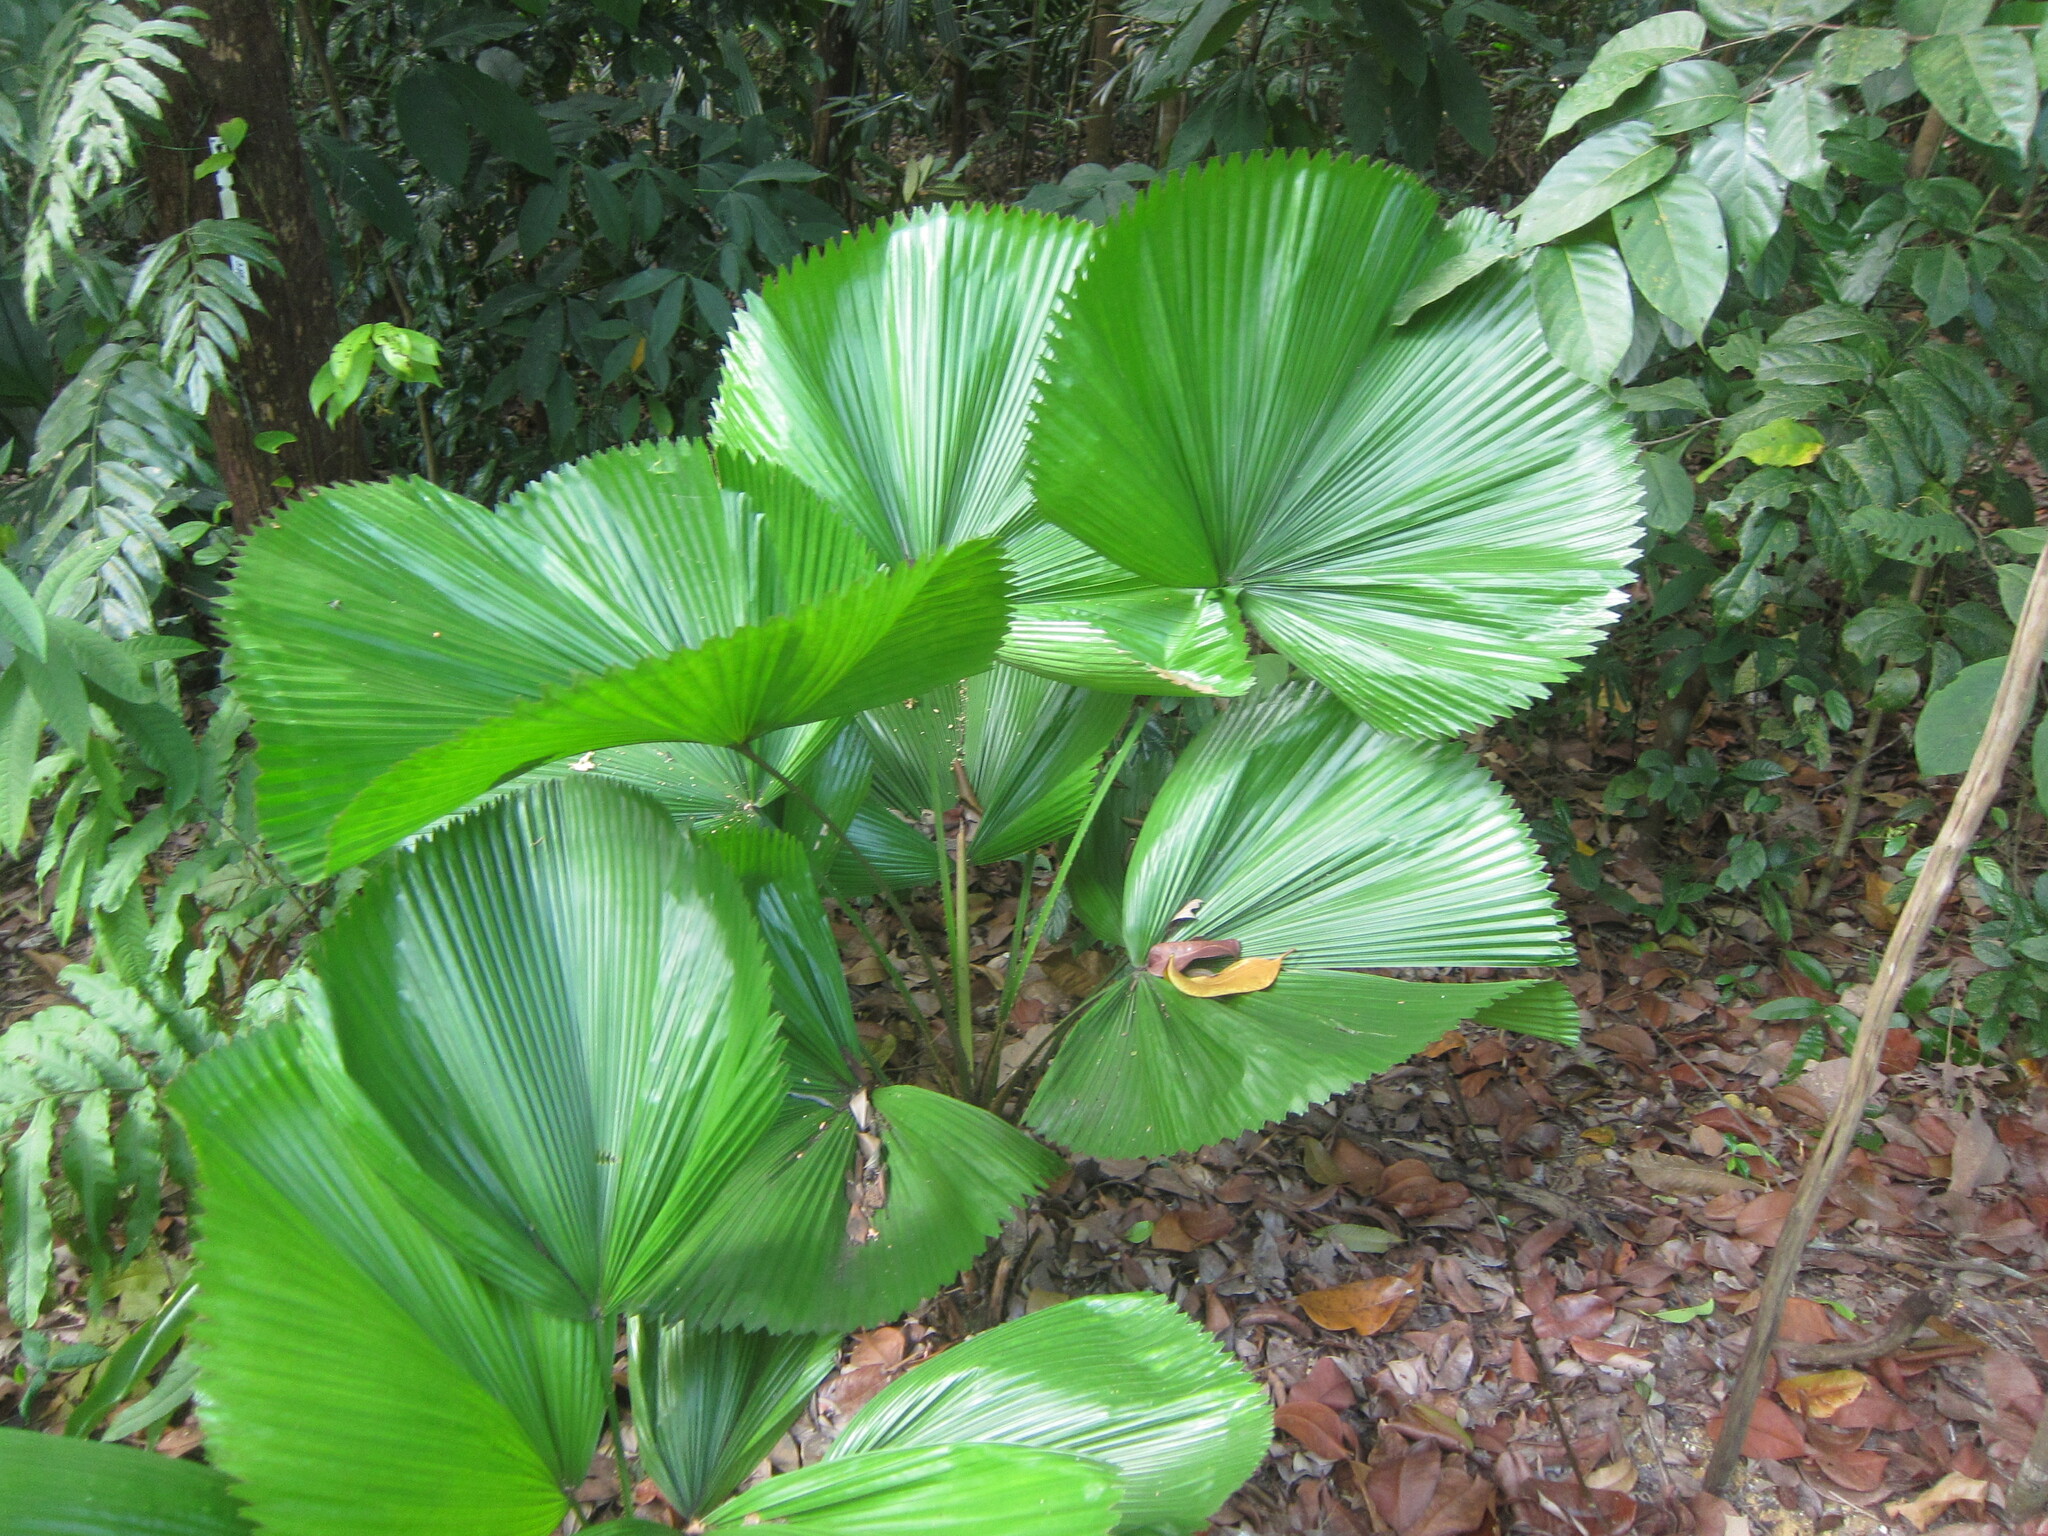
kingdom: Plantae
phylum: Tracheophyta
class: Liliopsida
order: Arecales
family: Arecaceae
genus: Licuala
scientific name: Licuala grandis
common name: Ruffled fan palm
